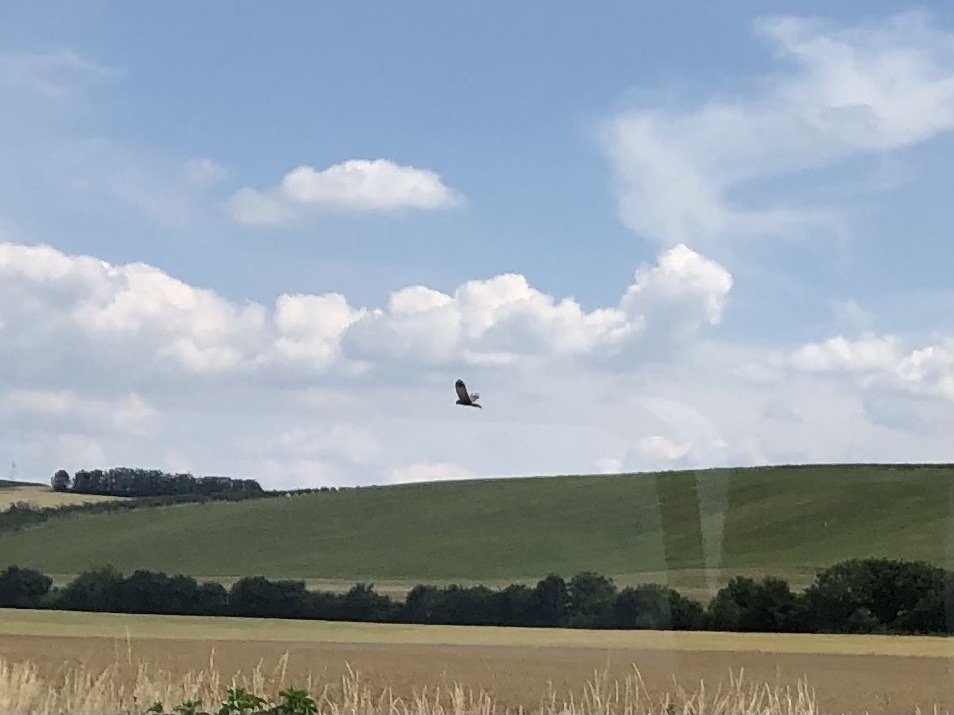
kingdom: Animalia
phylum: Chordata
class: Aves
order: Accipitriformes
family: Accipitridae
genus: Circus
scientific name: Circus aeruginosus
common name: Western marsh harrier
